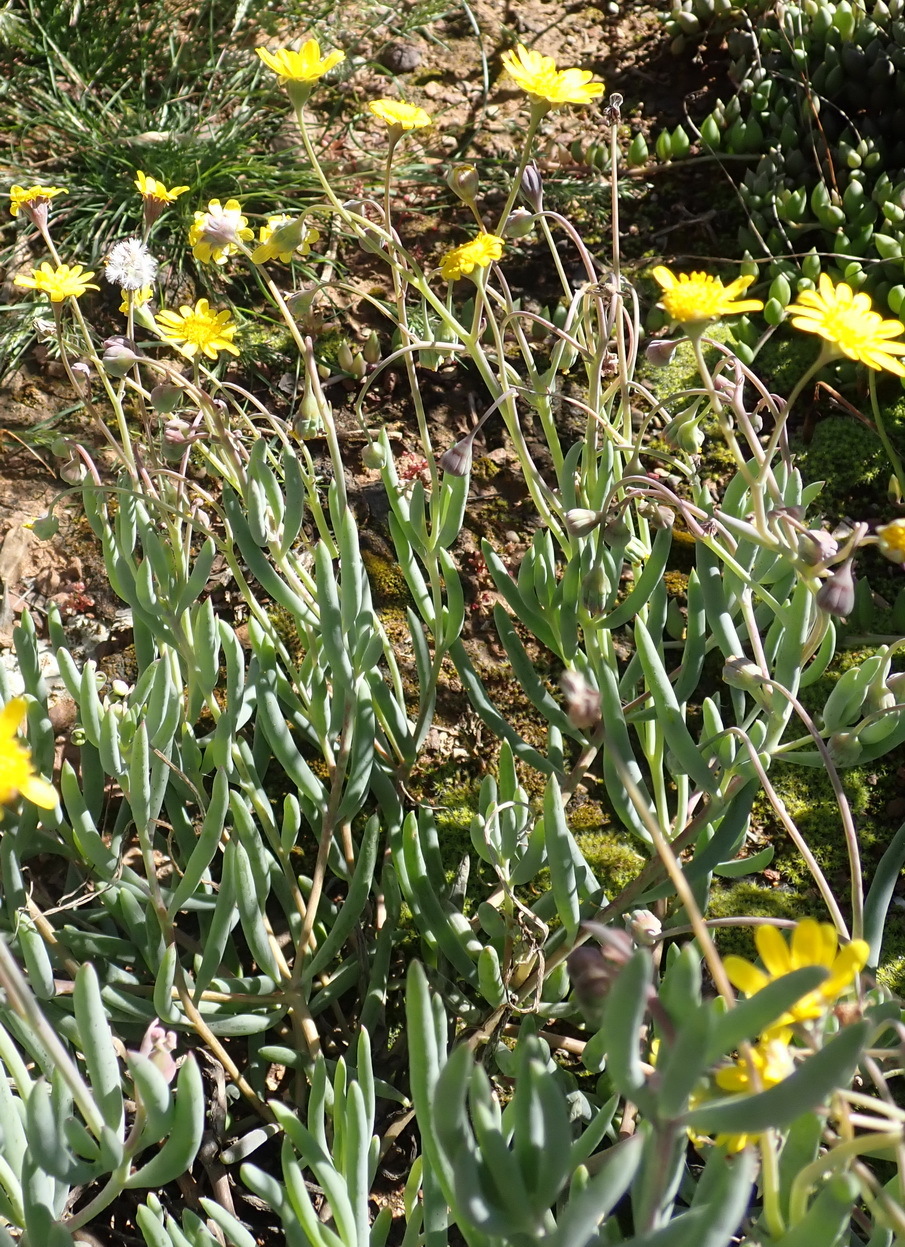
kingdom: Plantae
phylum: Tracheophyta
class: Magnoliopsida
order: Asterales
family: Asteraceae
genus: Crassothonna
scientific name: Crassothonna cacalioides
